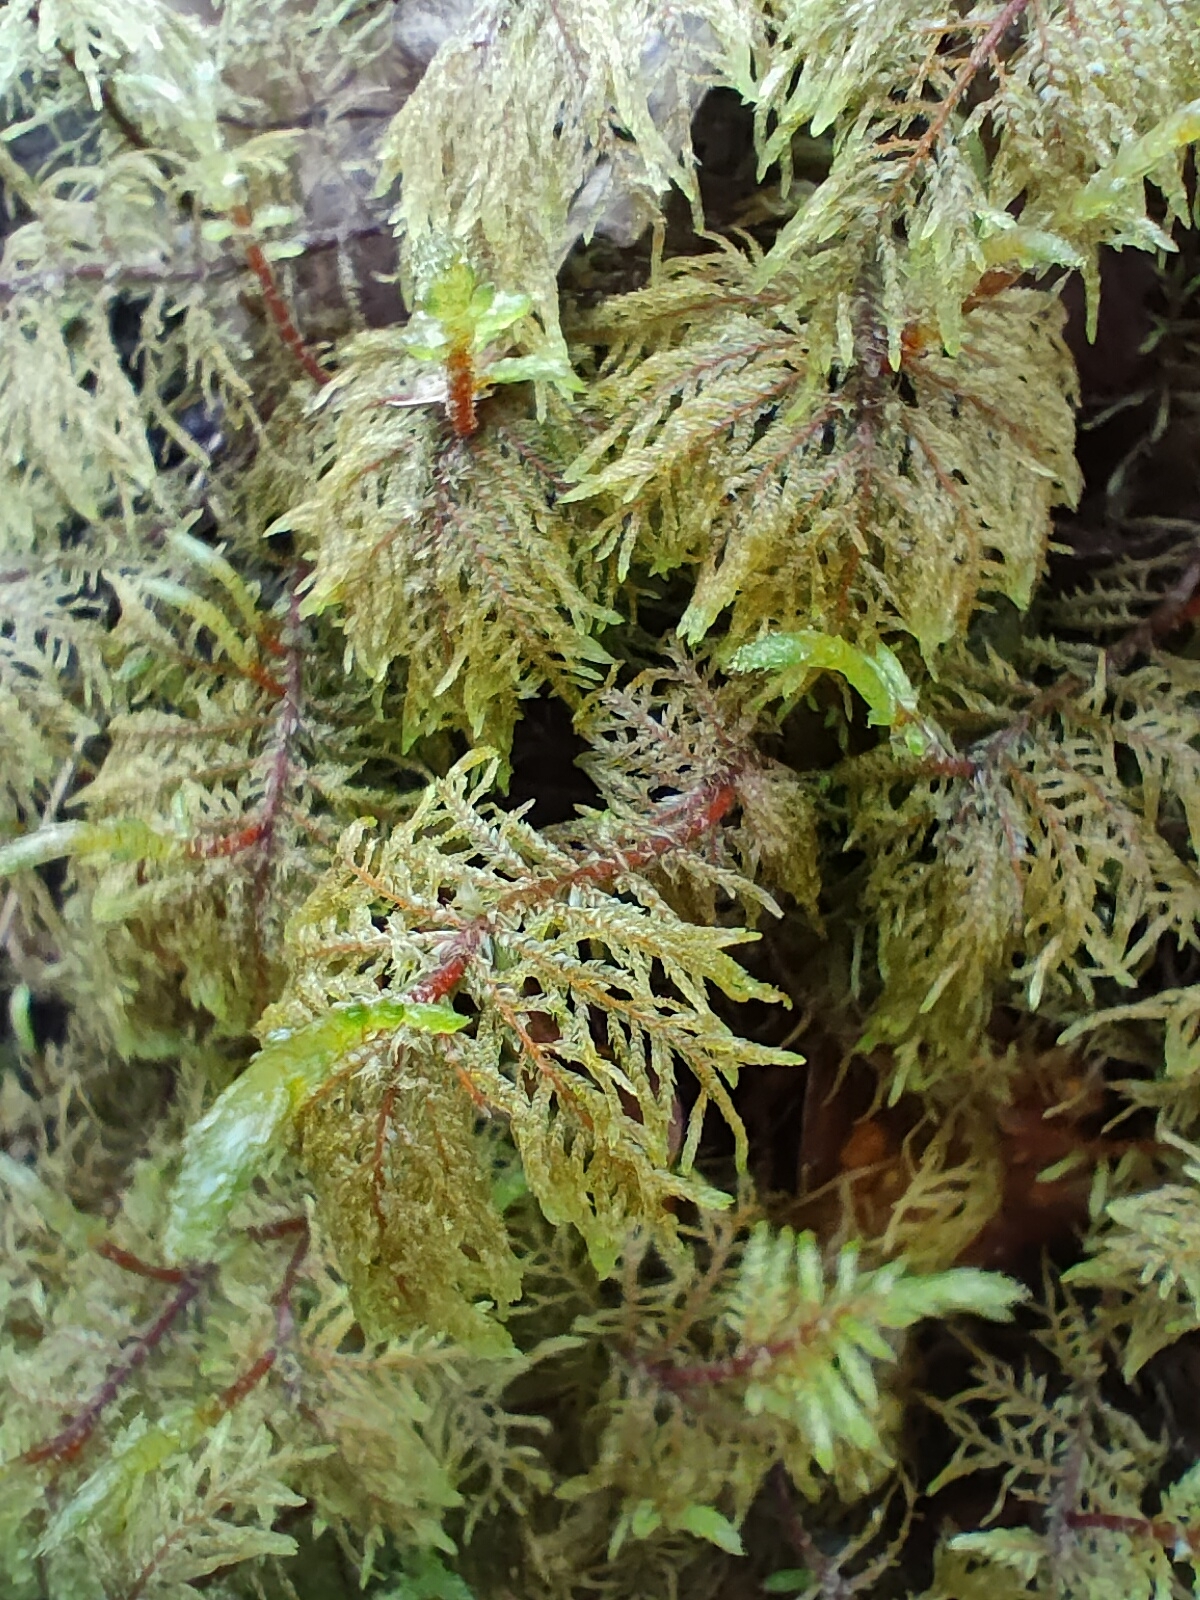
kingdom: Plantae
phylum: Bryophyta
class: Bryopsida
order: Hypnales
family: Hylocomiaceae
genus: Hylocomium
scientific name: Hylocomium splendens
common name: Stairstep moss
